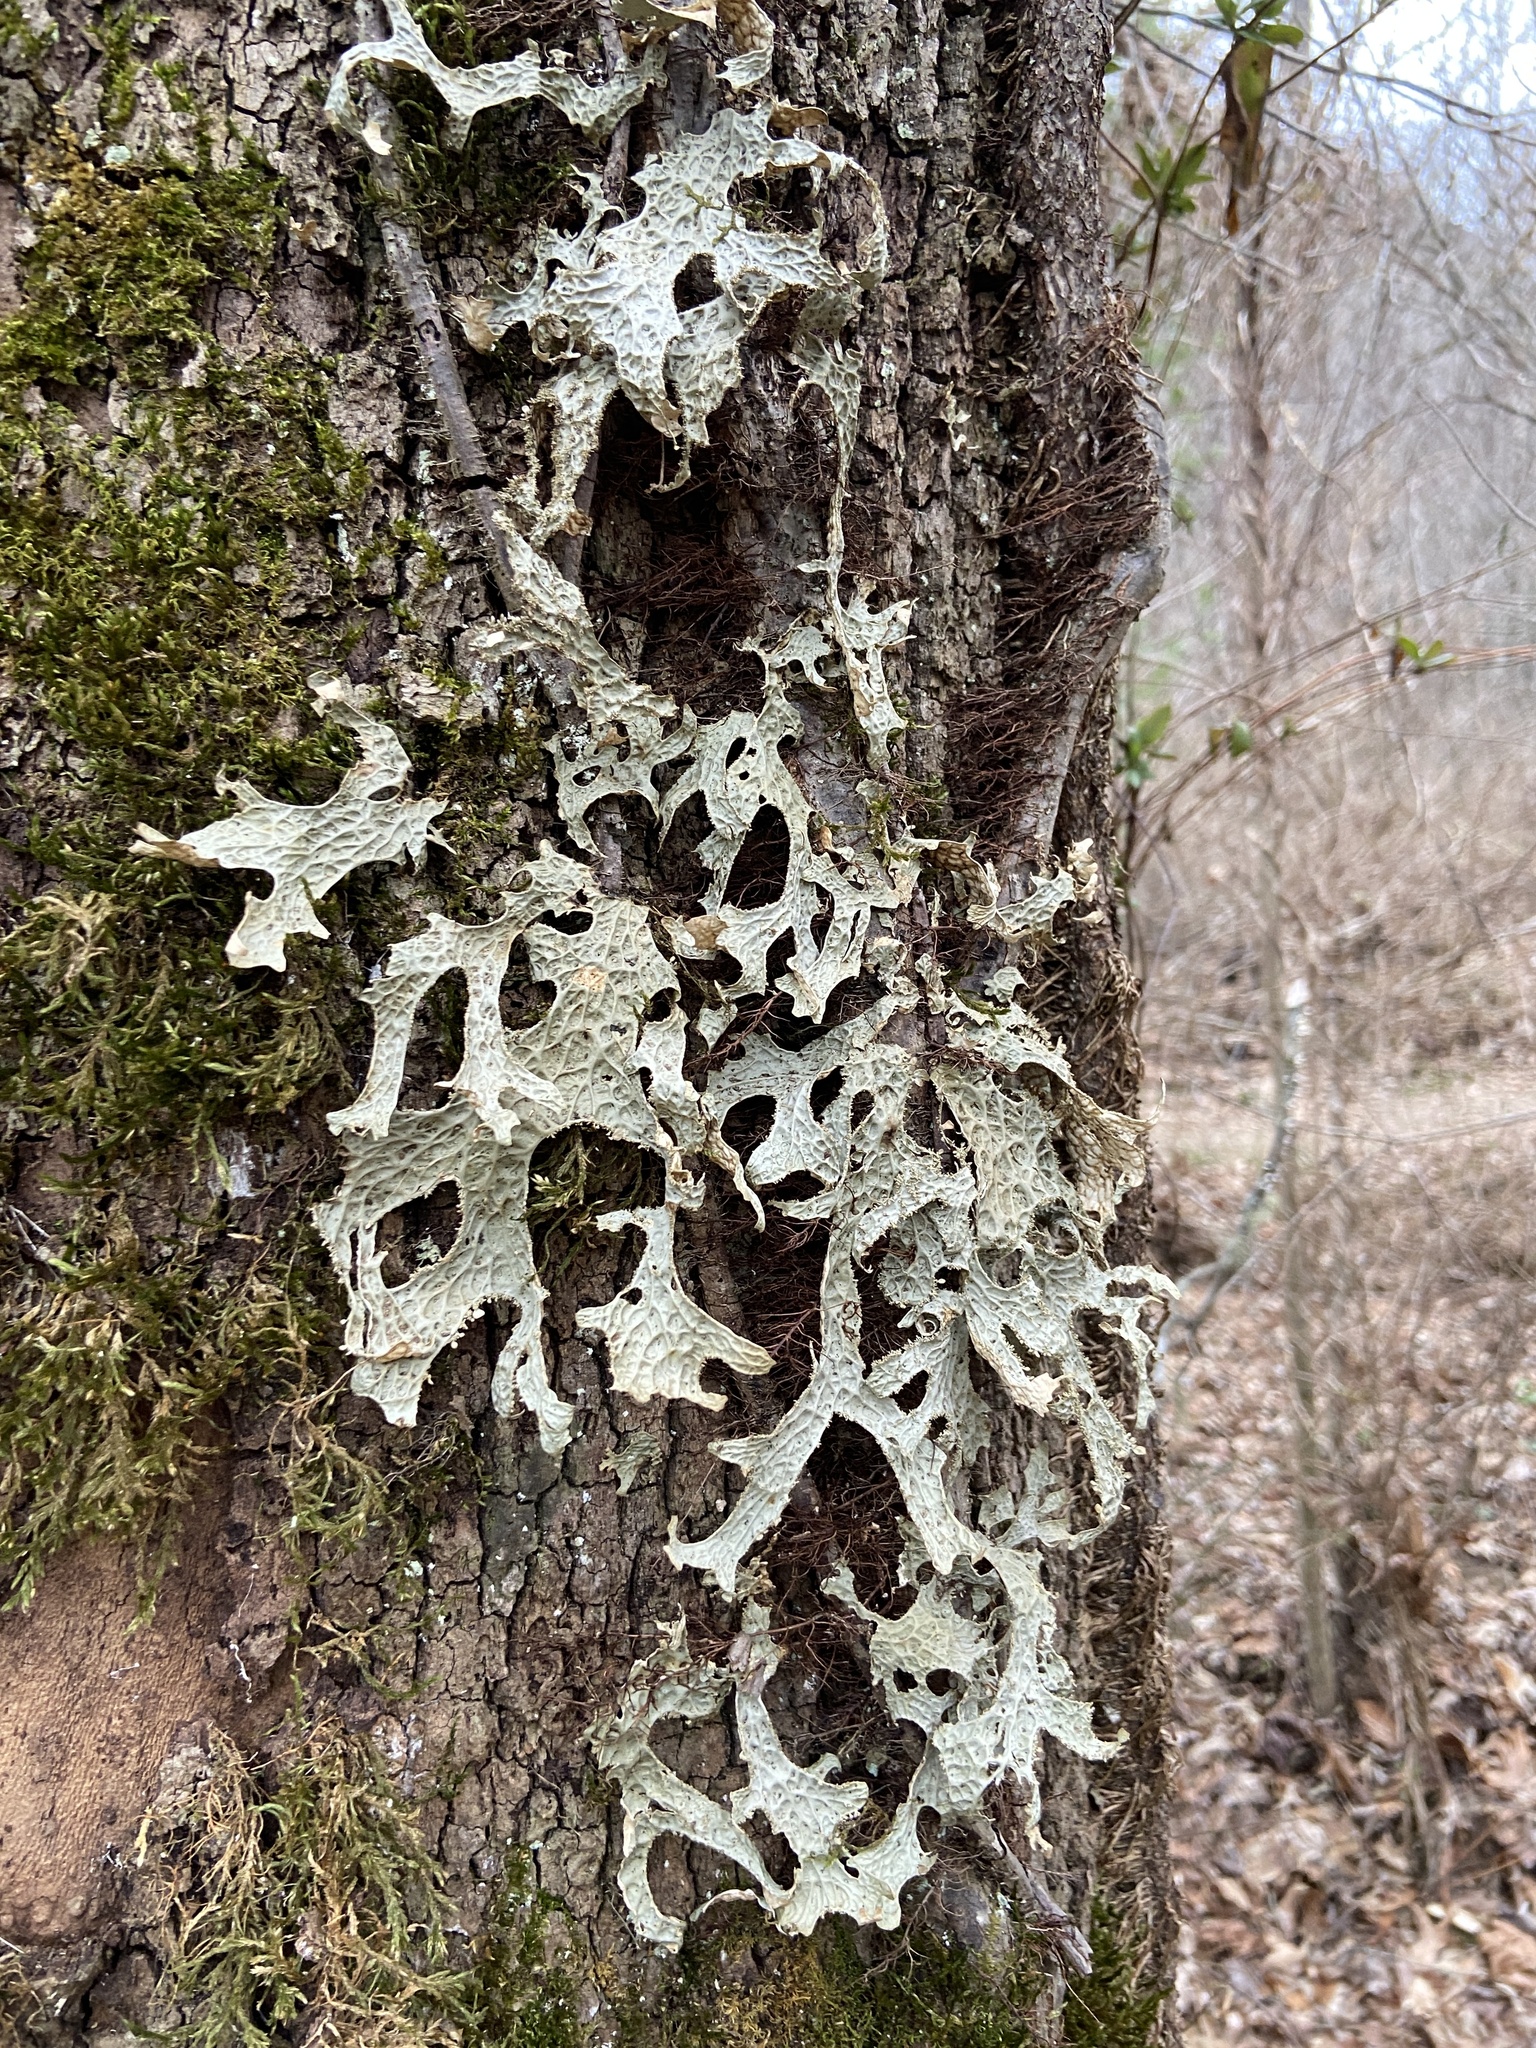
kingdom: Fungi
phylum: Ascomycota
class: Lecanoromycetes
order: Peltigerales
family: Lobariaceae
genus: Lobaria
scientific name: Lobaria pulmonaria
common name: Lungwort
